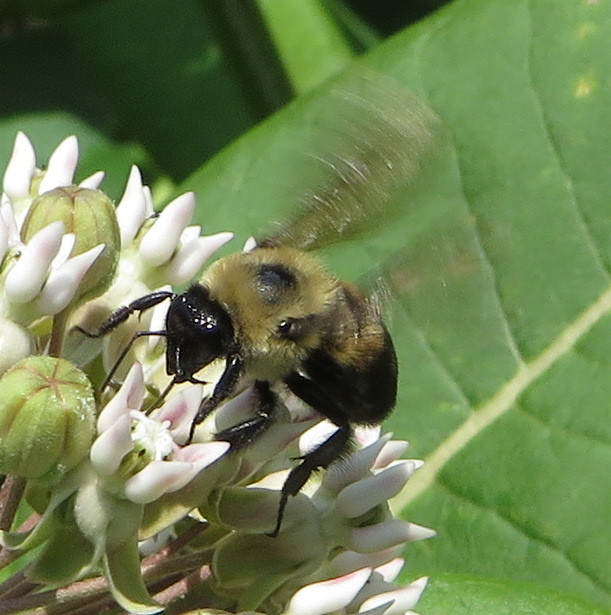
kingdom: Animalia
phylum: Arthropoda
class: Insecta
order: Hymenoptera
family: Apidae
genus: Bombus
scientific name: Bombus griseocollis
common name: Brown-belted bumble bee
